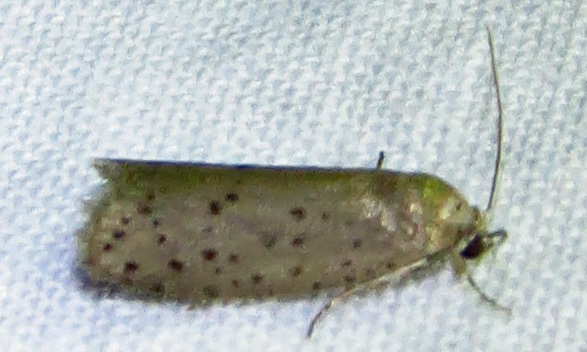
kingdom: Animalia
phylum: Arthropoda
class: Insecta
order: Lepidoptera
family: Galacticidae
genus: Homadaula
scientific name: Homadaula anisocentra
